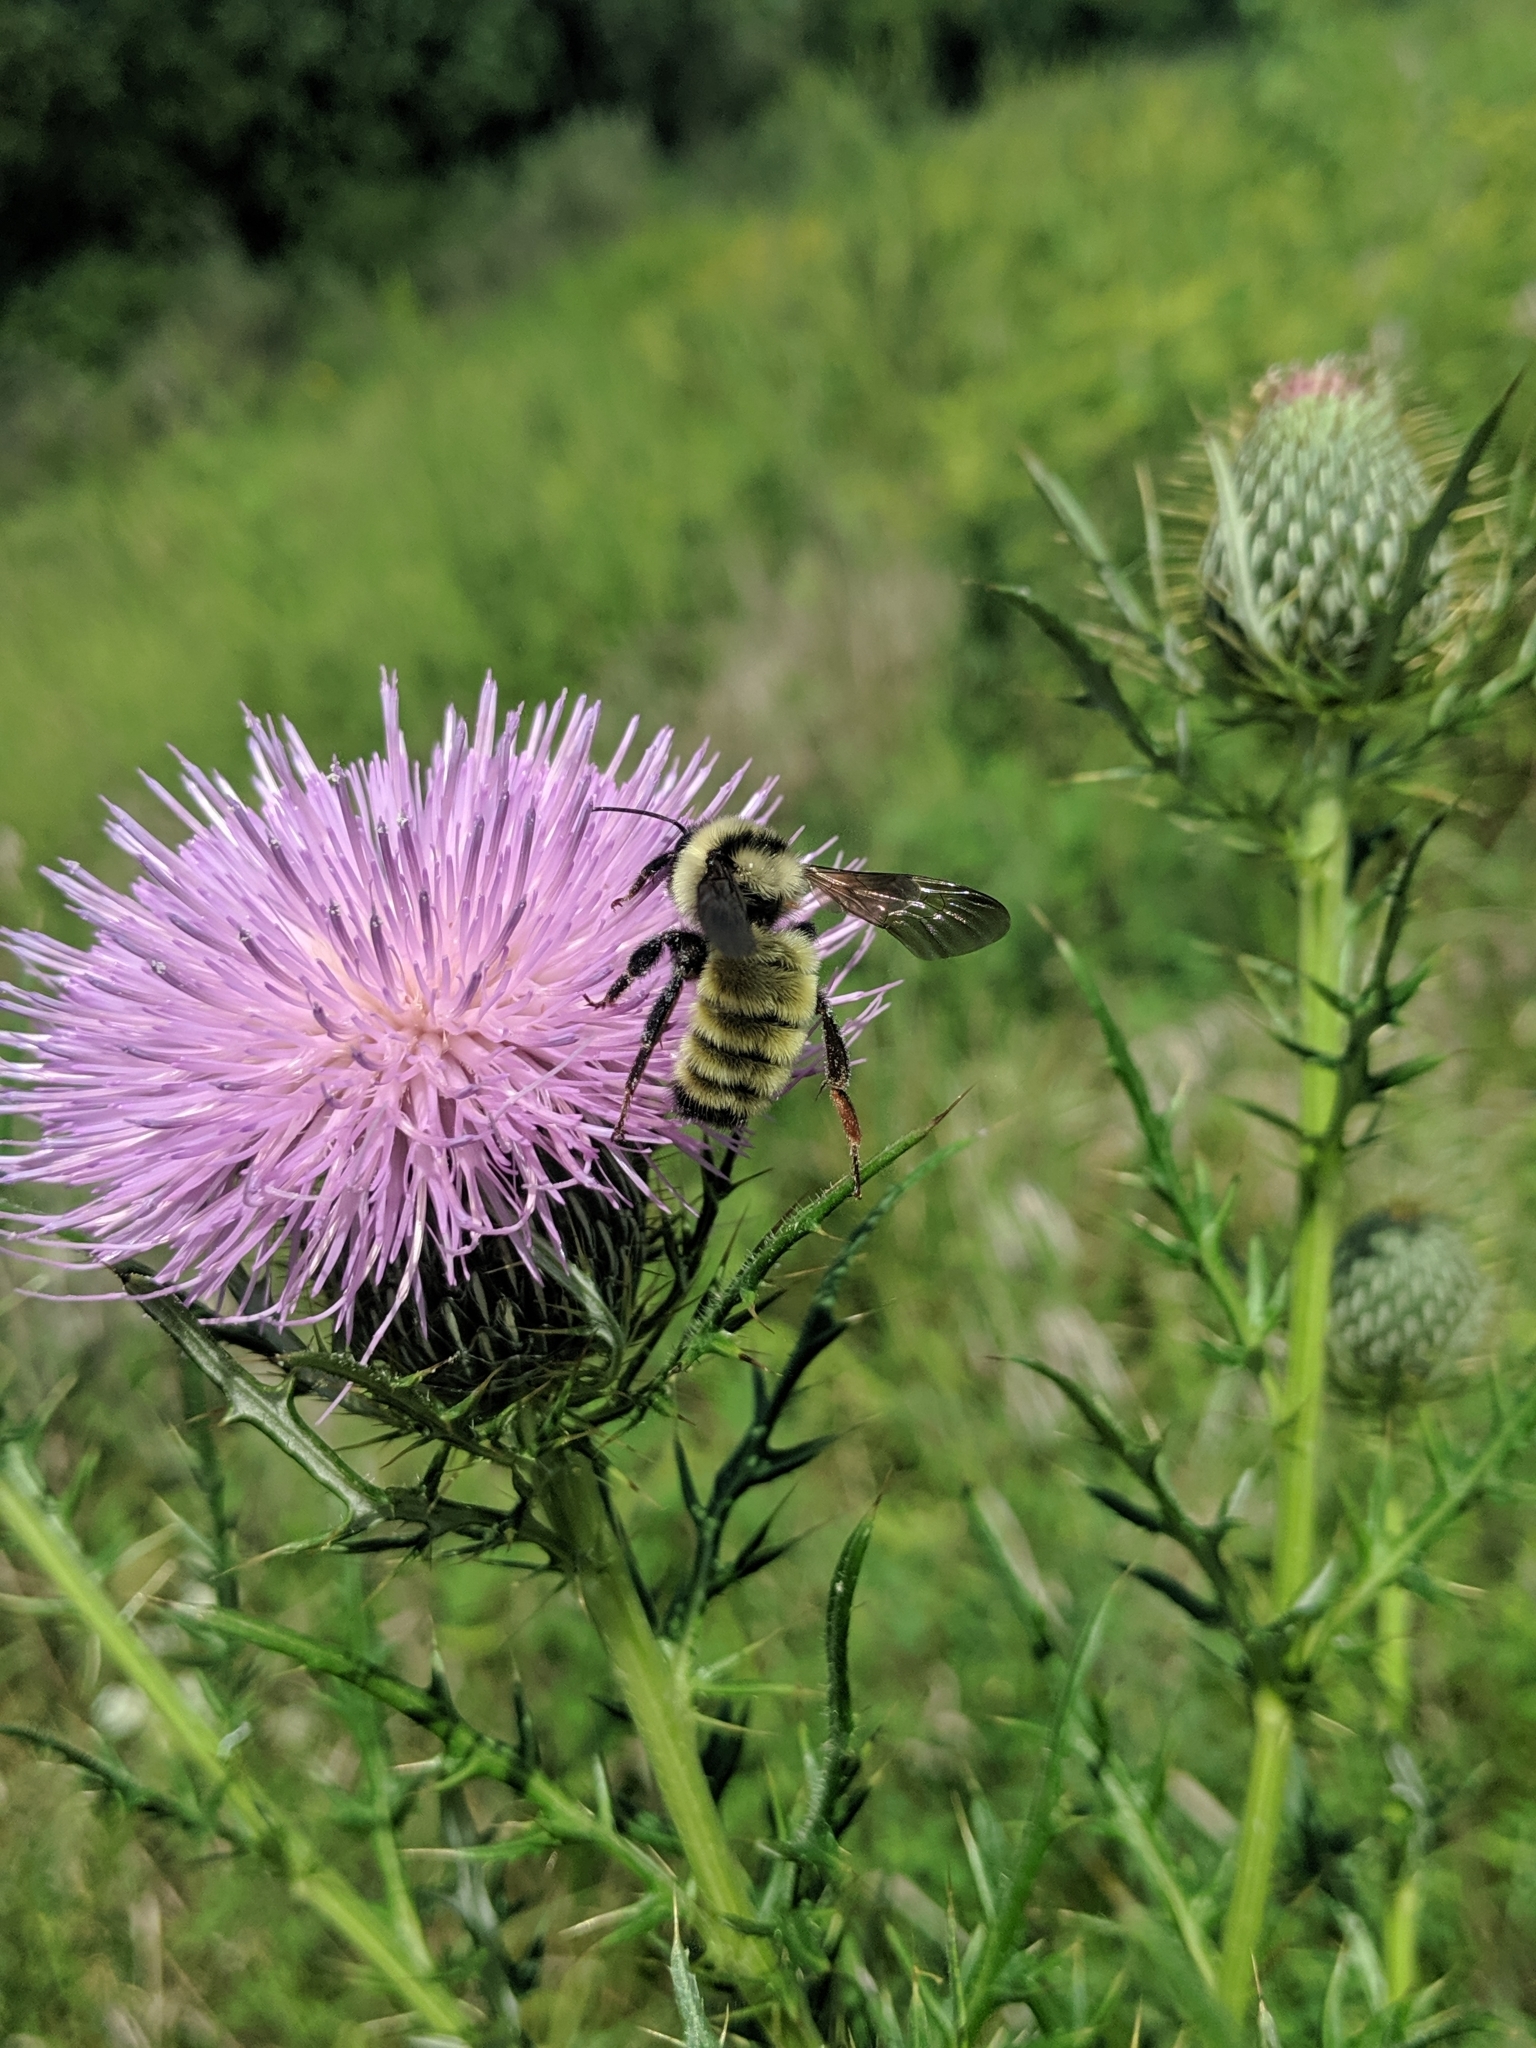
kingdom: Animalia
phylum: Arthropoda
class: Insecta
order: Hymenoptera
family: Apidae
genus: Bombus
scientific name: Bombus pensylvanicus
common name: Bumble bee
